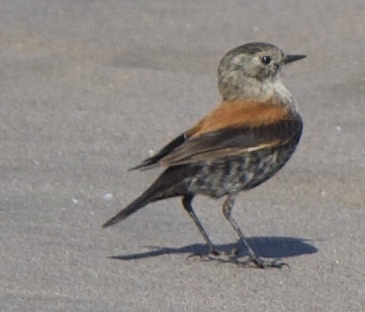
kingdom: Animalia
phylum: Chordata
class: Aves
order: Passeriformes
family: Tyrannidae
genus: Lessonia
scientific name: Lessonia rufa
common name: Austral negrito
